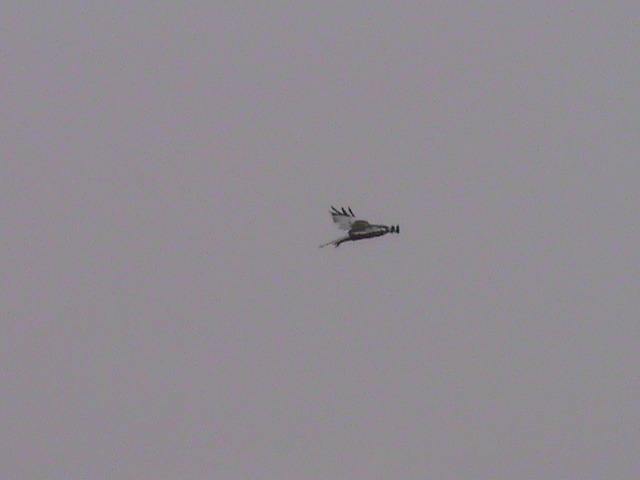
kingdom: Animalia
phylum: Chordata
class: Aves
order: Accipitriformes
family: Accipitridae
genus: Circus
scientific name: Circus aeruginosus
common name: Western marsh harrier
